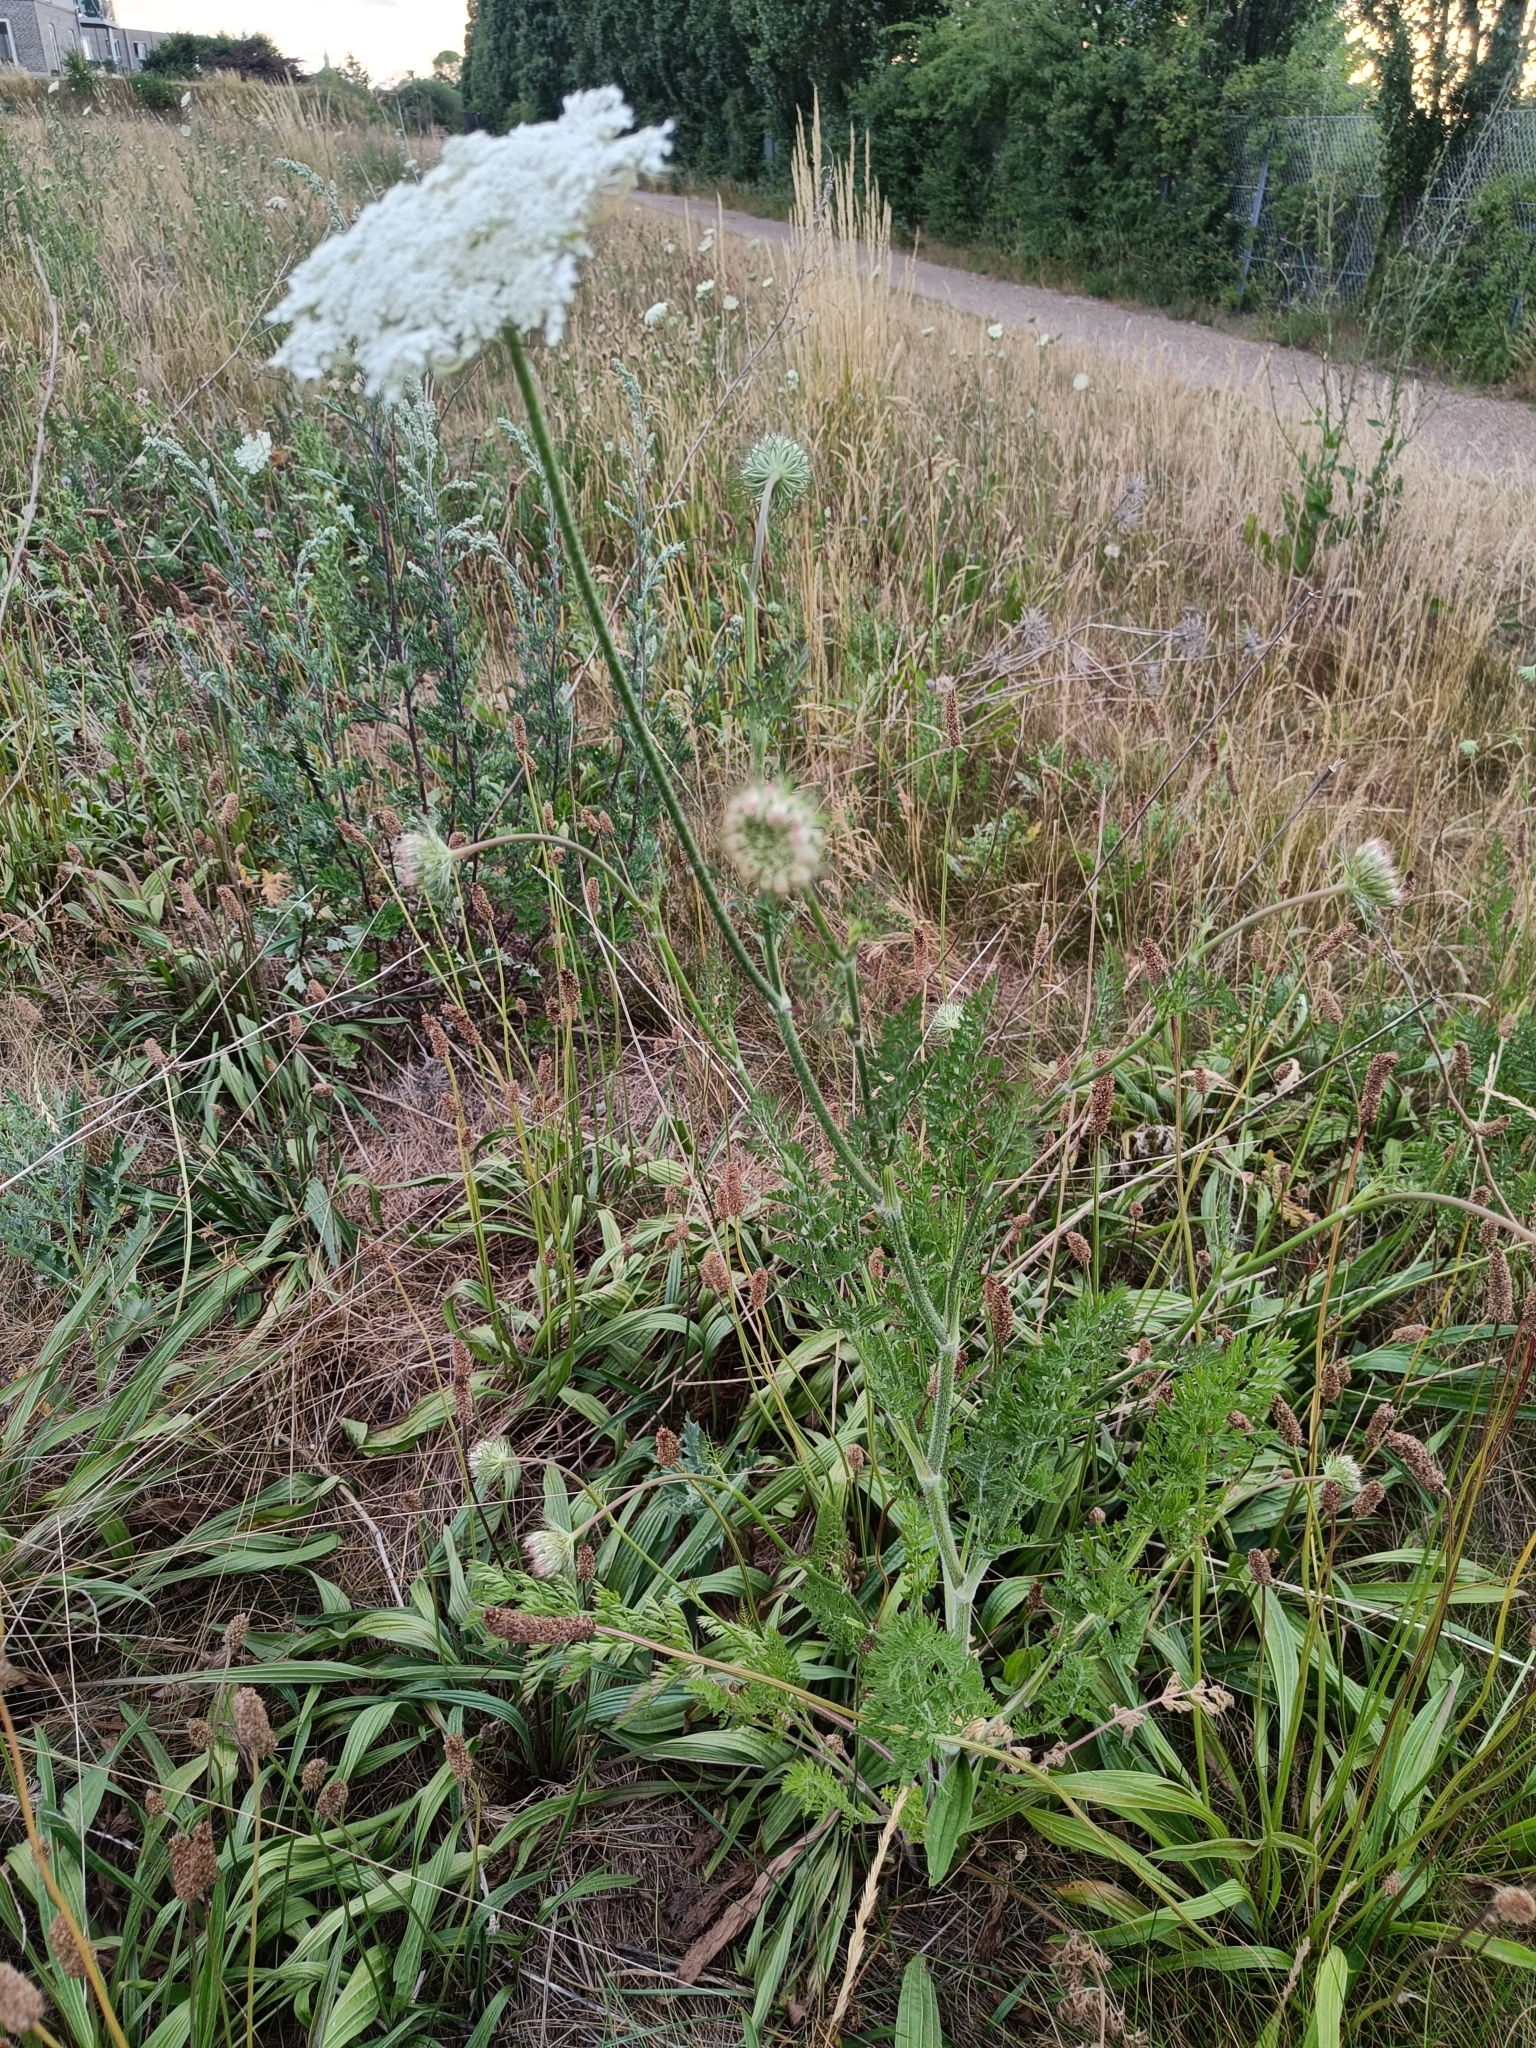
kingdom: Plantae
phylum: Tracheophyta
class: Magnoliopsida
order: Apiales
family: Apiaceae
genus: Daucus
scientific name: Daucus carota
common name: Wild carrot
